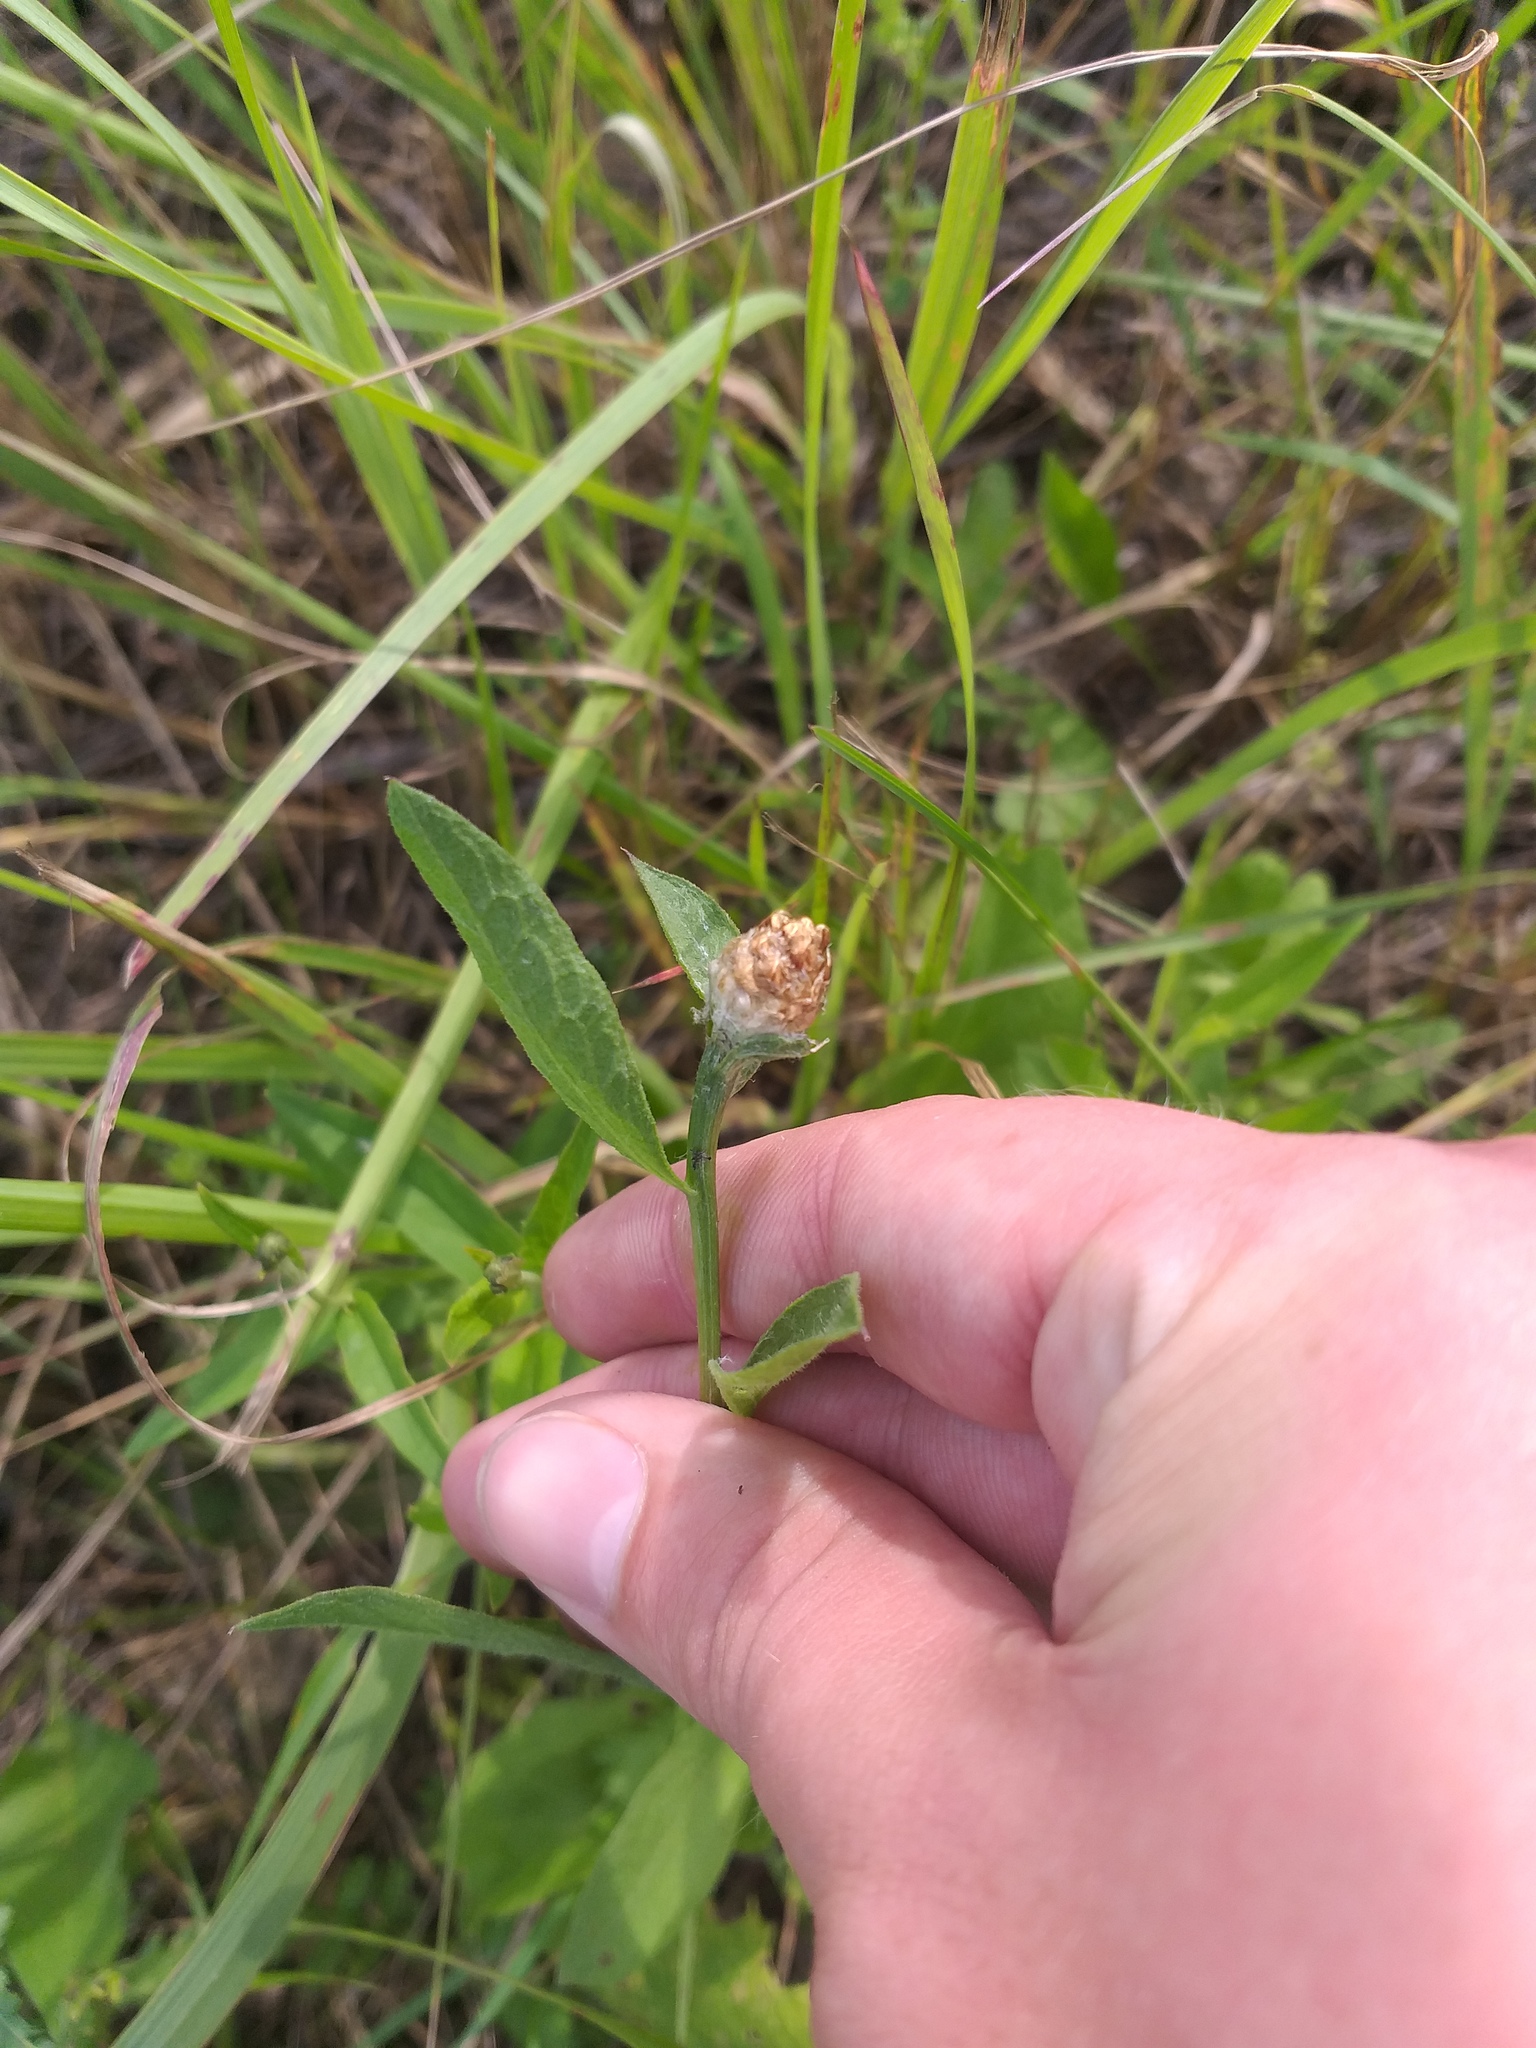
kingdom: Plantae
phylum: Tracheophyta
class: Magnoliopsida
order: Asterales
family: Asteraceae
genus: Centaurea
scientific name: Centaurea jacea
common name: Brown knapweed
